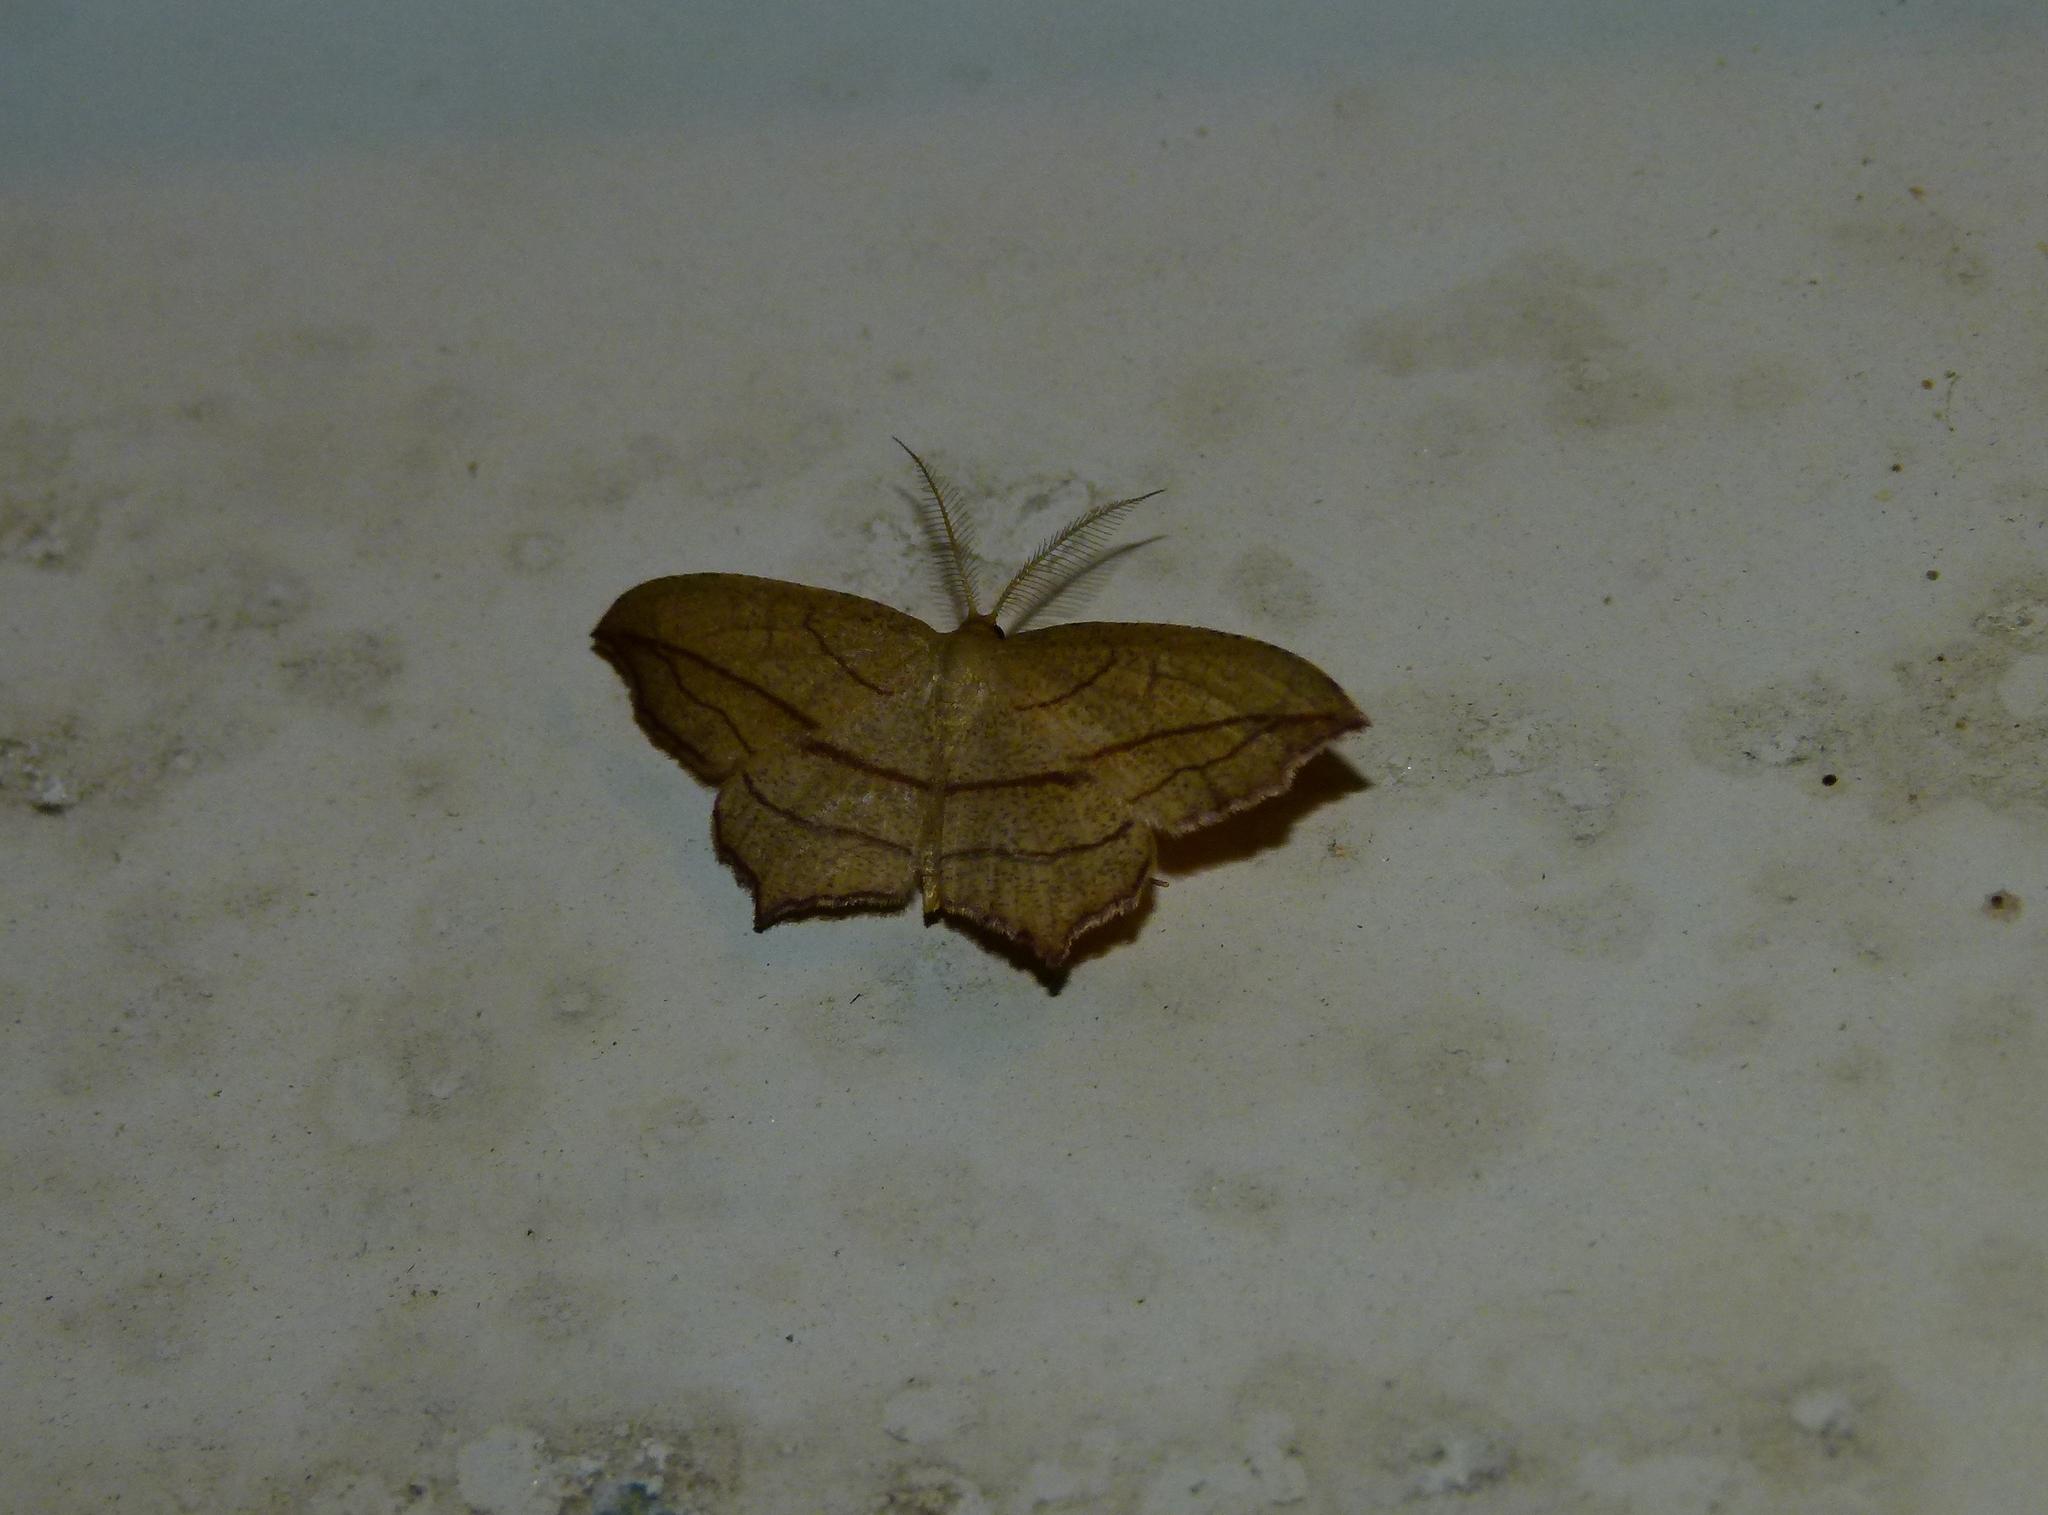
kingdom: Animalia
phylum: Arthropoda
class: Insecta
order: Lepidoptera
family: Geometridae
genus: Timandra
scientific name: Timandra amaturaria
